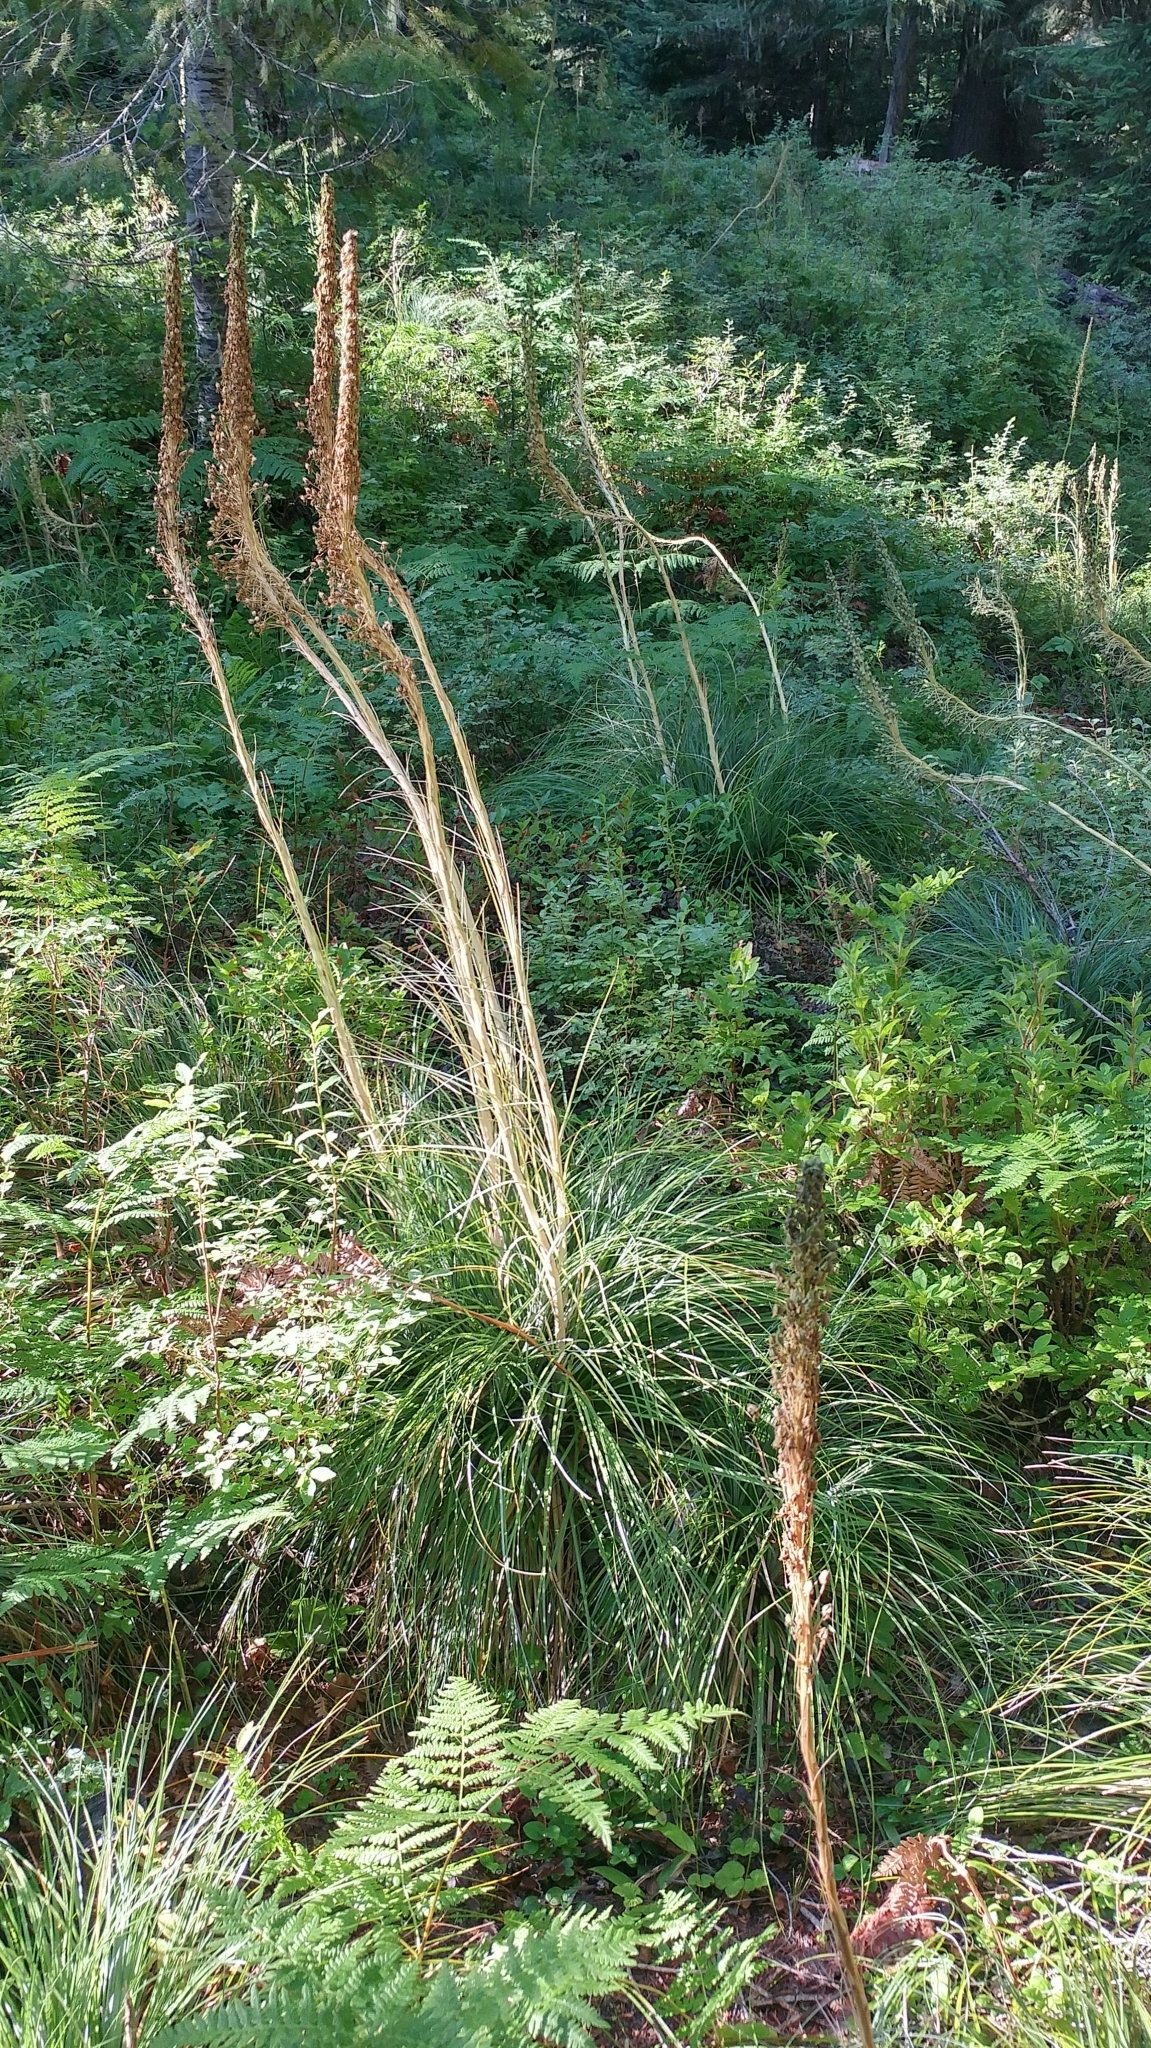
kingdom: Plantae
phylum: Tracheophyta
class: Liliopsida
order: Liliales
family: Melanthiaceae
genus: Xerophyllum
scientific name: Xerophyllum tenax
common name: Bear-grass
